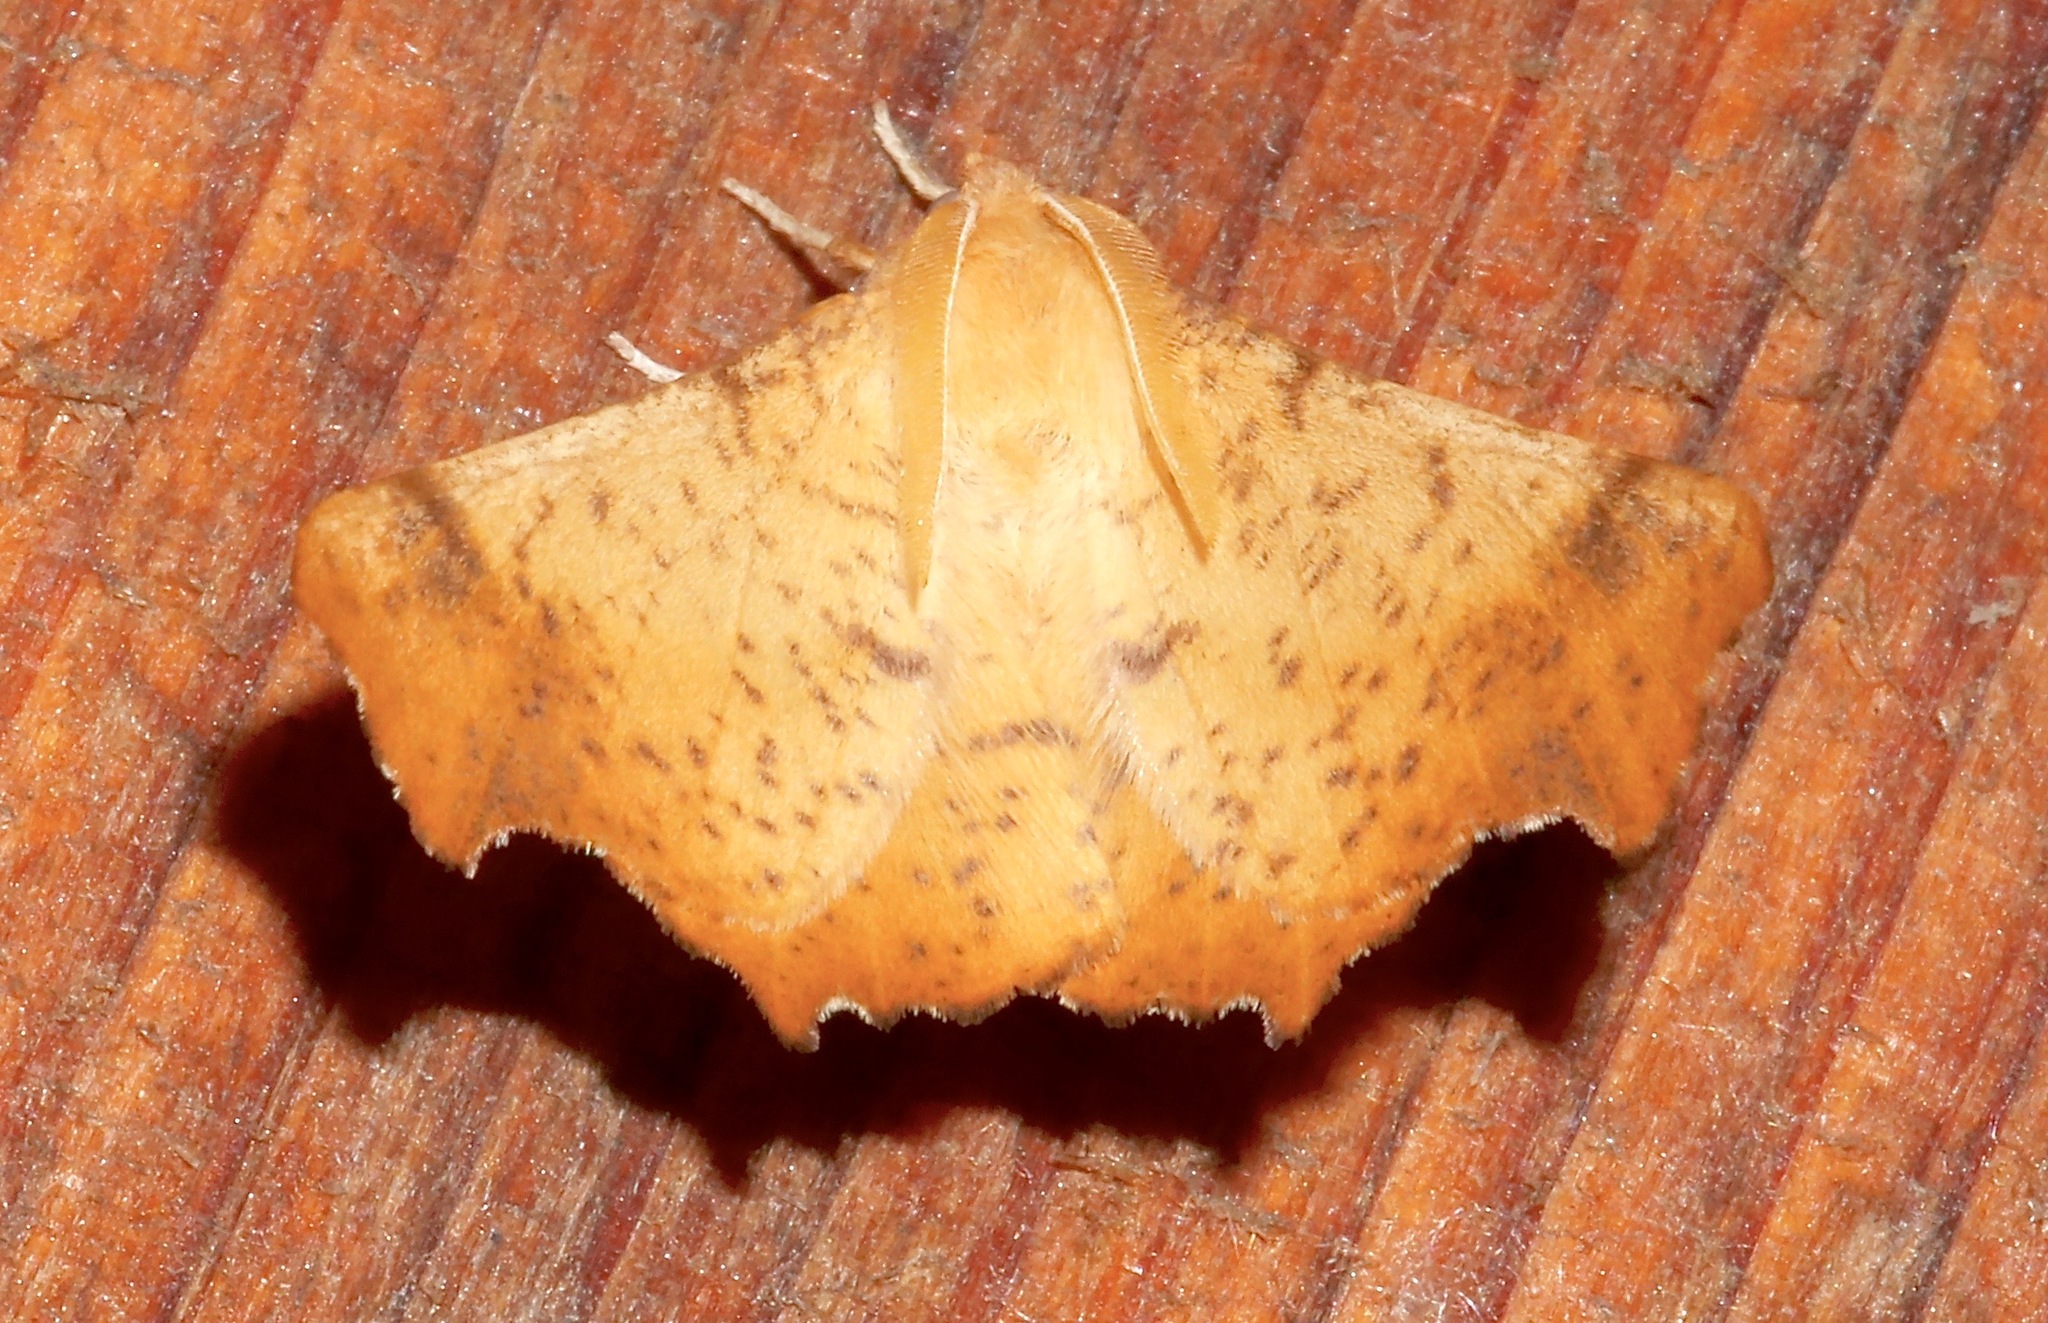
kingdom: Animalia
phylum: Arthropoda
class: Insecta
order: Lepidoptera
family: Geometridae
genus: Ennomos
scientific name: Ennomos magnaria
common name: Maple spanworm
